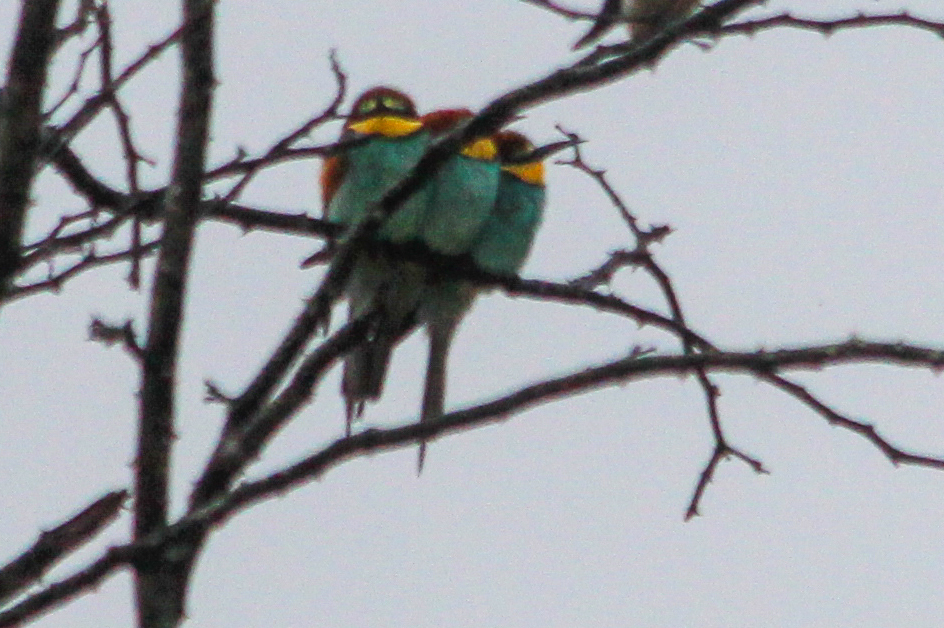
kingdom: Animalia
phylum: Chordata
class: Aves
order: Coraciiformes
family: Meropidae
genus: Merops
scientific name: Merops apiaster
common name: European bee-eater
